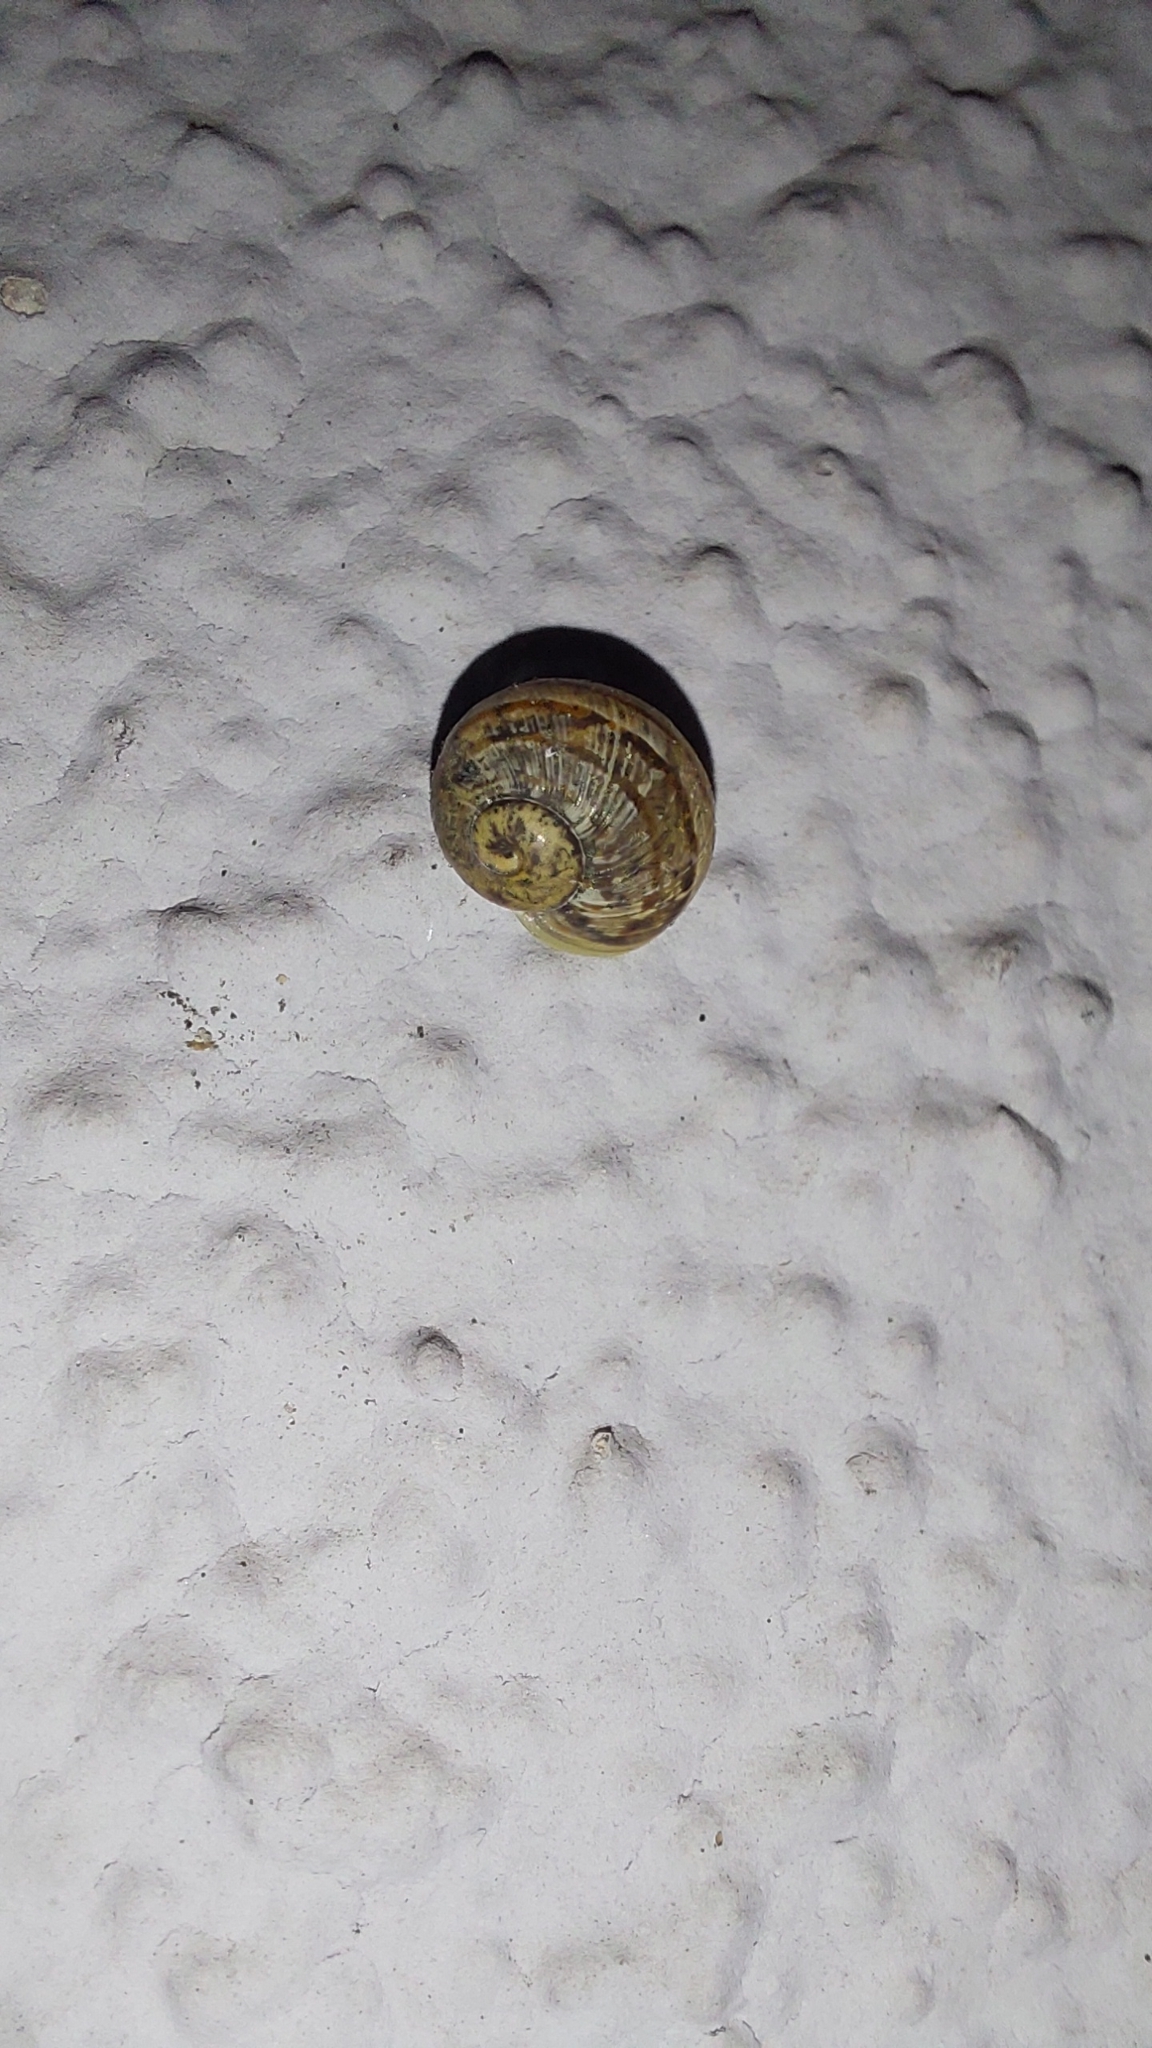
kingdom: Animalia
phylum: Mollusca
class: Gastropoda
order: Stylommatophora
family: Helicidae
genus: Cornu
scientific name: Cornu aspersum
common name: Brown garden snail
